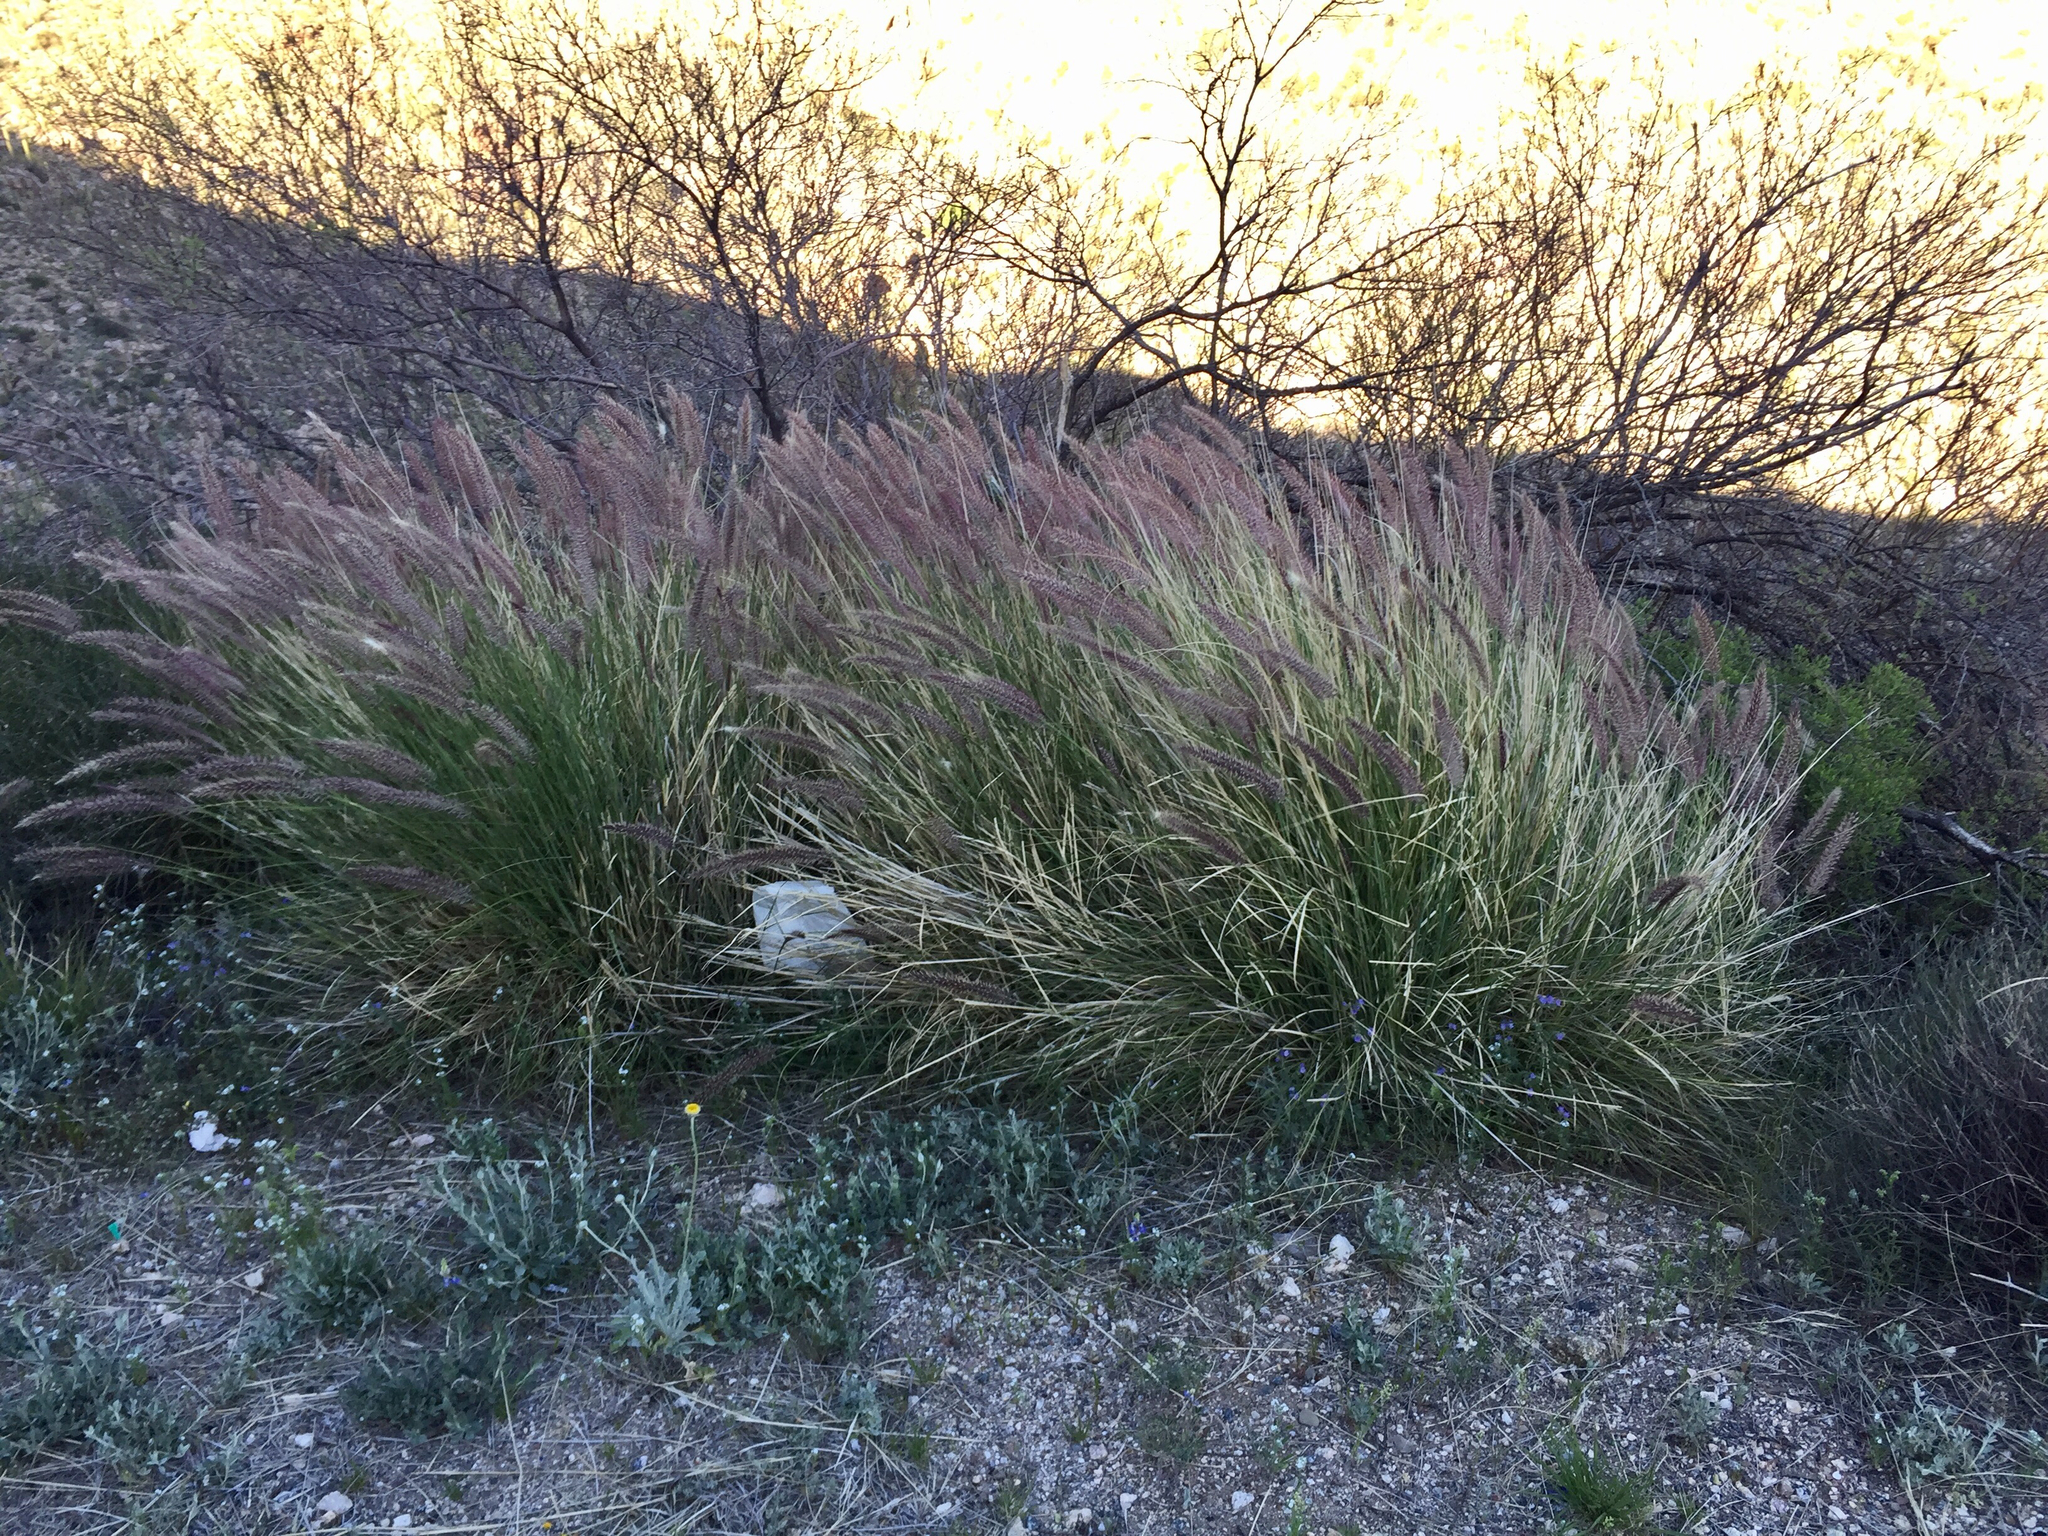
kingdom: Plantae
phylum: Tracheophyta
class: Liliopsida
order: Poales
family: Poaceae
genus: Cenchrus
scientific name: Cenchrus setaceus
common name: Crimson fountaingrass
